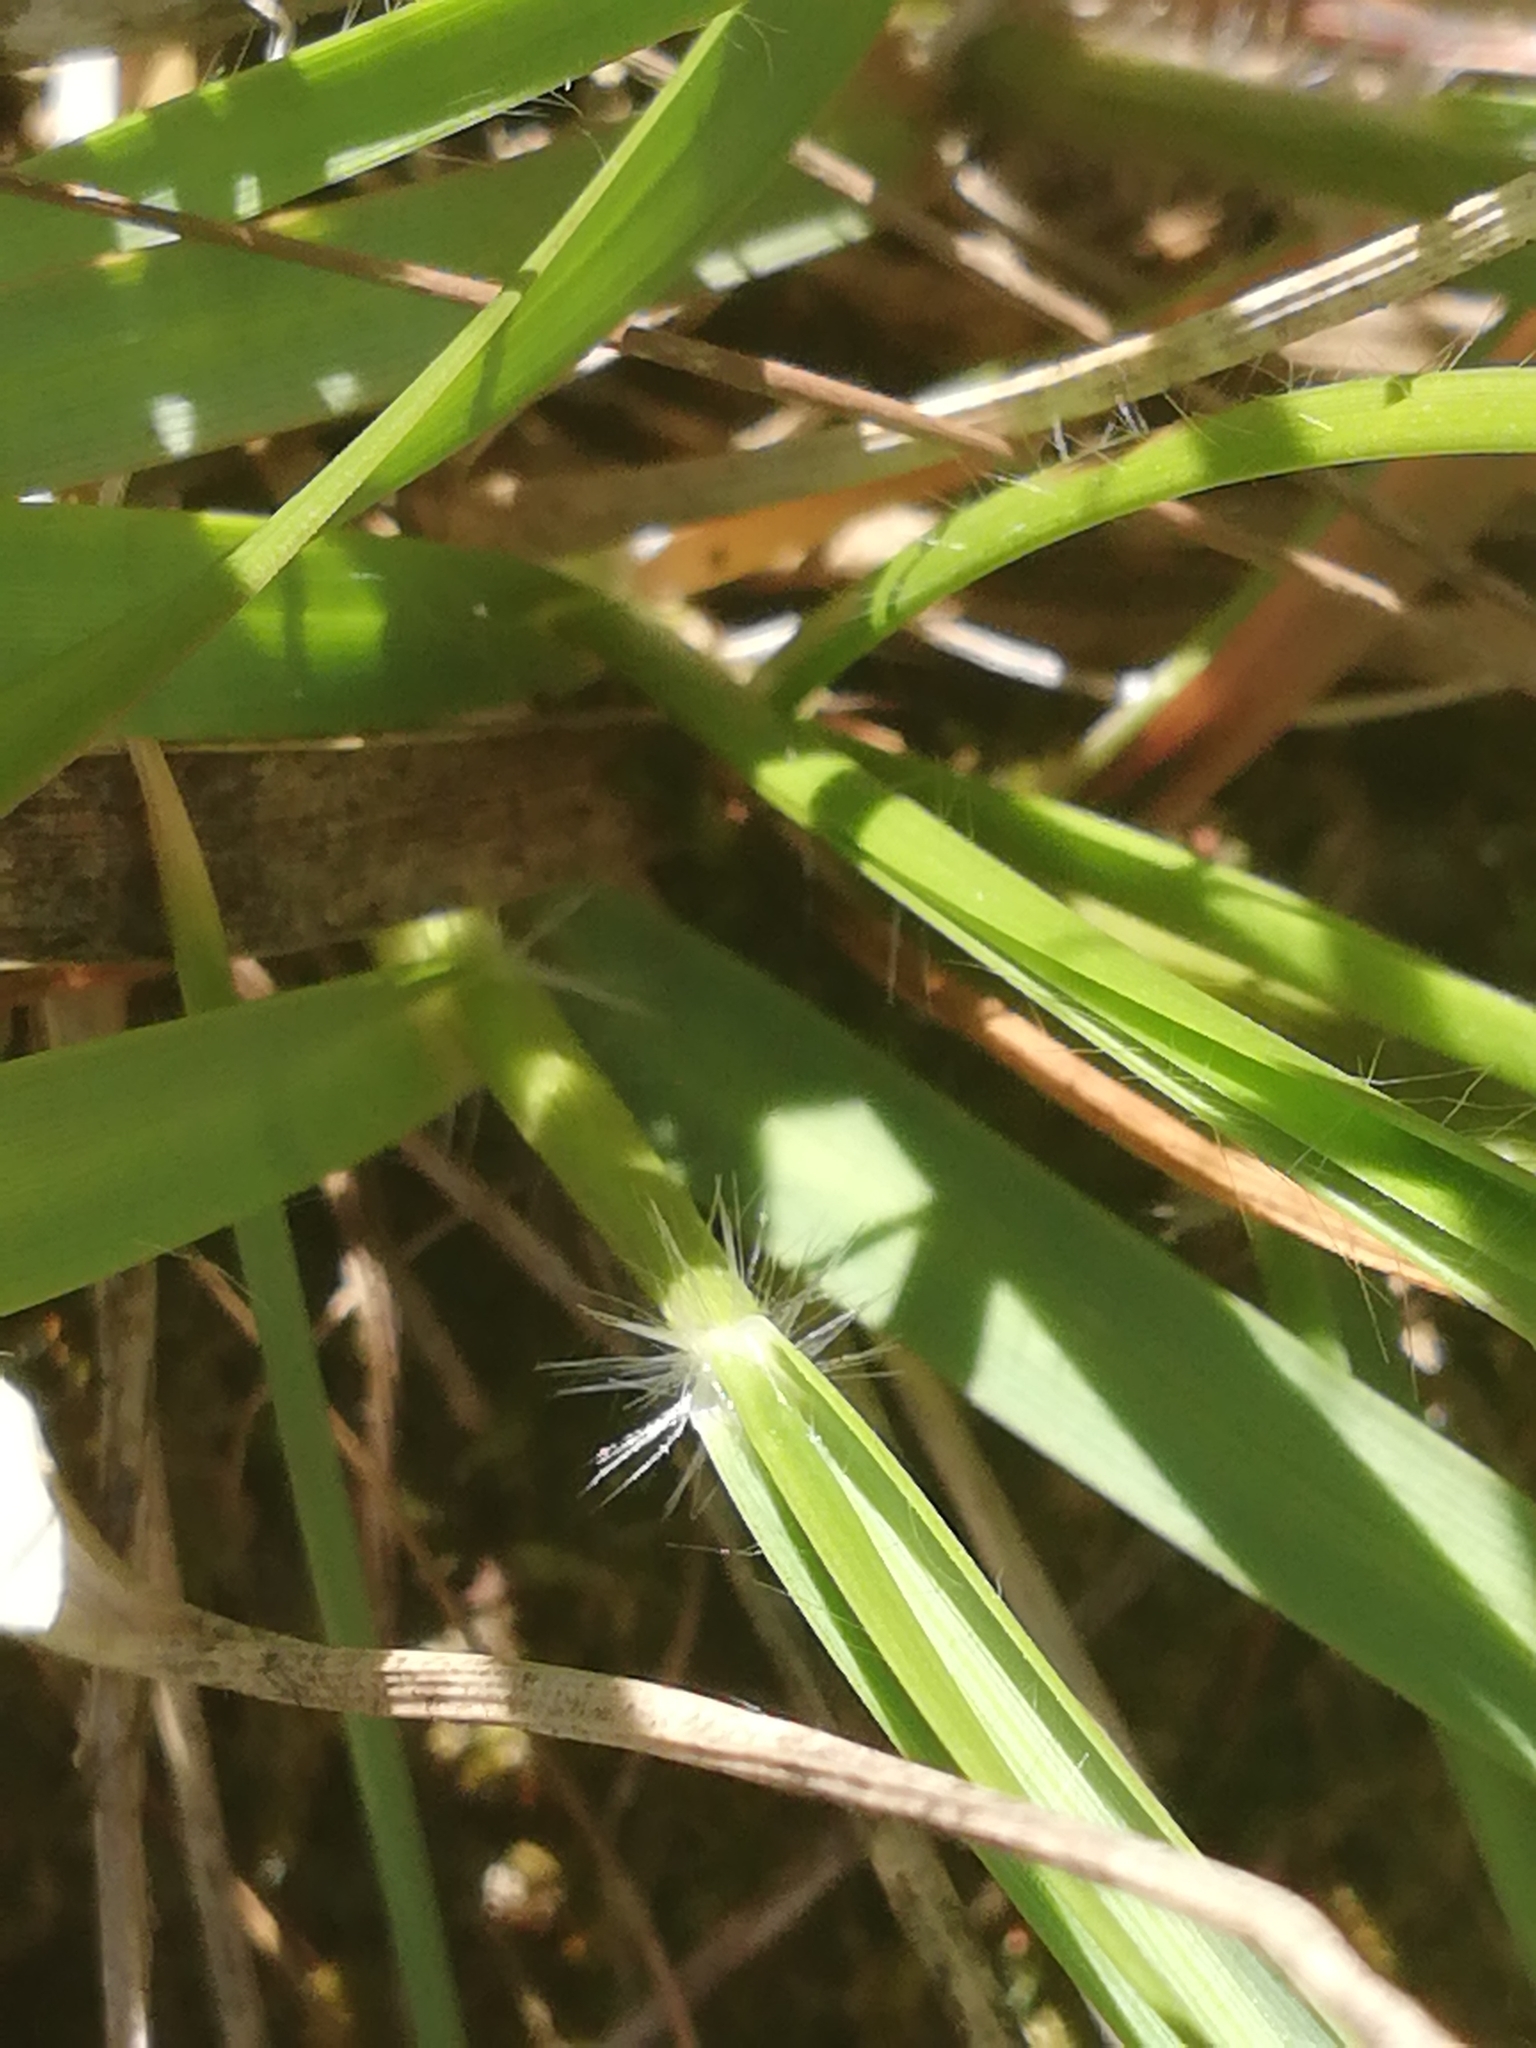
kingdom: Plantae
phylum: Tracheophyta
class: Liliopsida
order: Poales
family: Poaceae
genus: Danthonia
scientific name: Danthonia decumbens
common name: Common heathgrass
